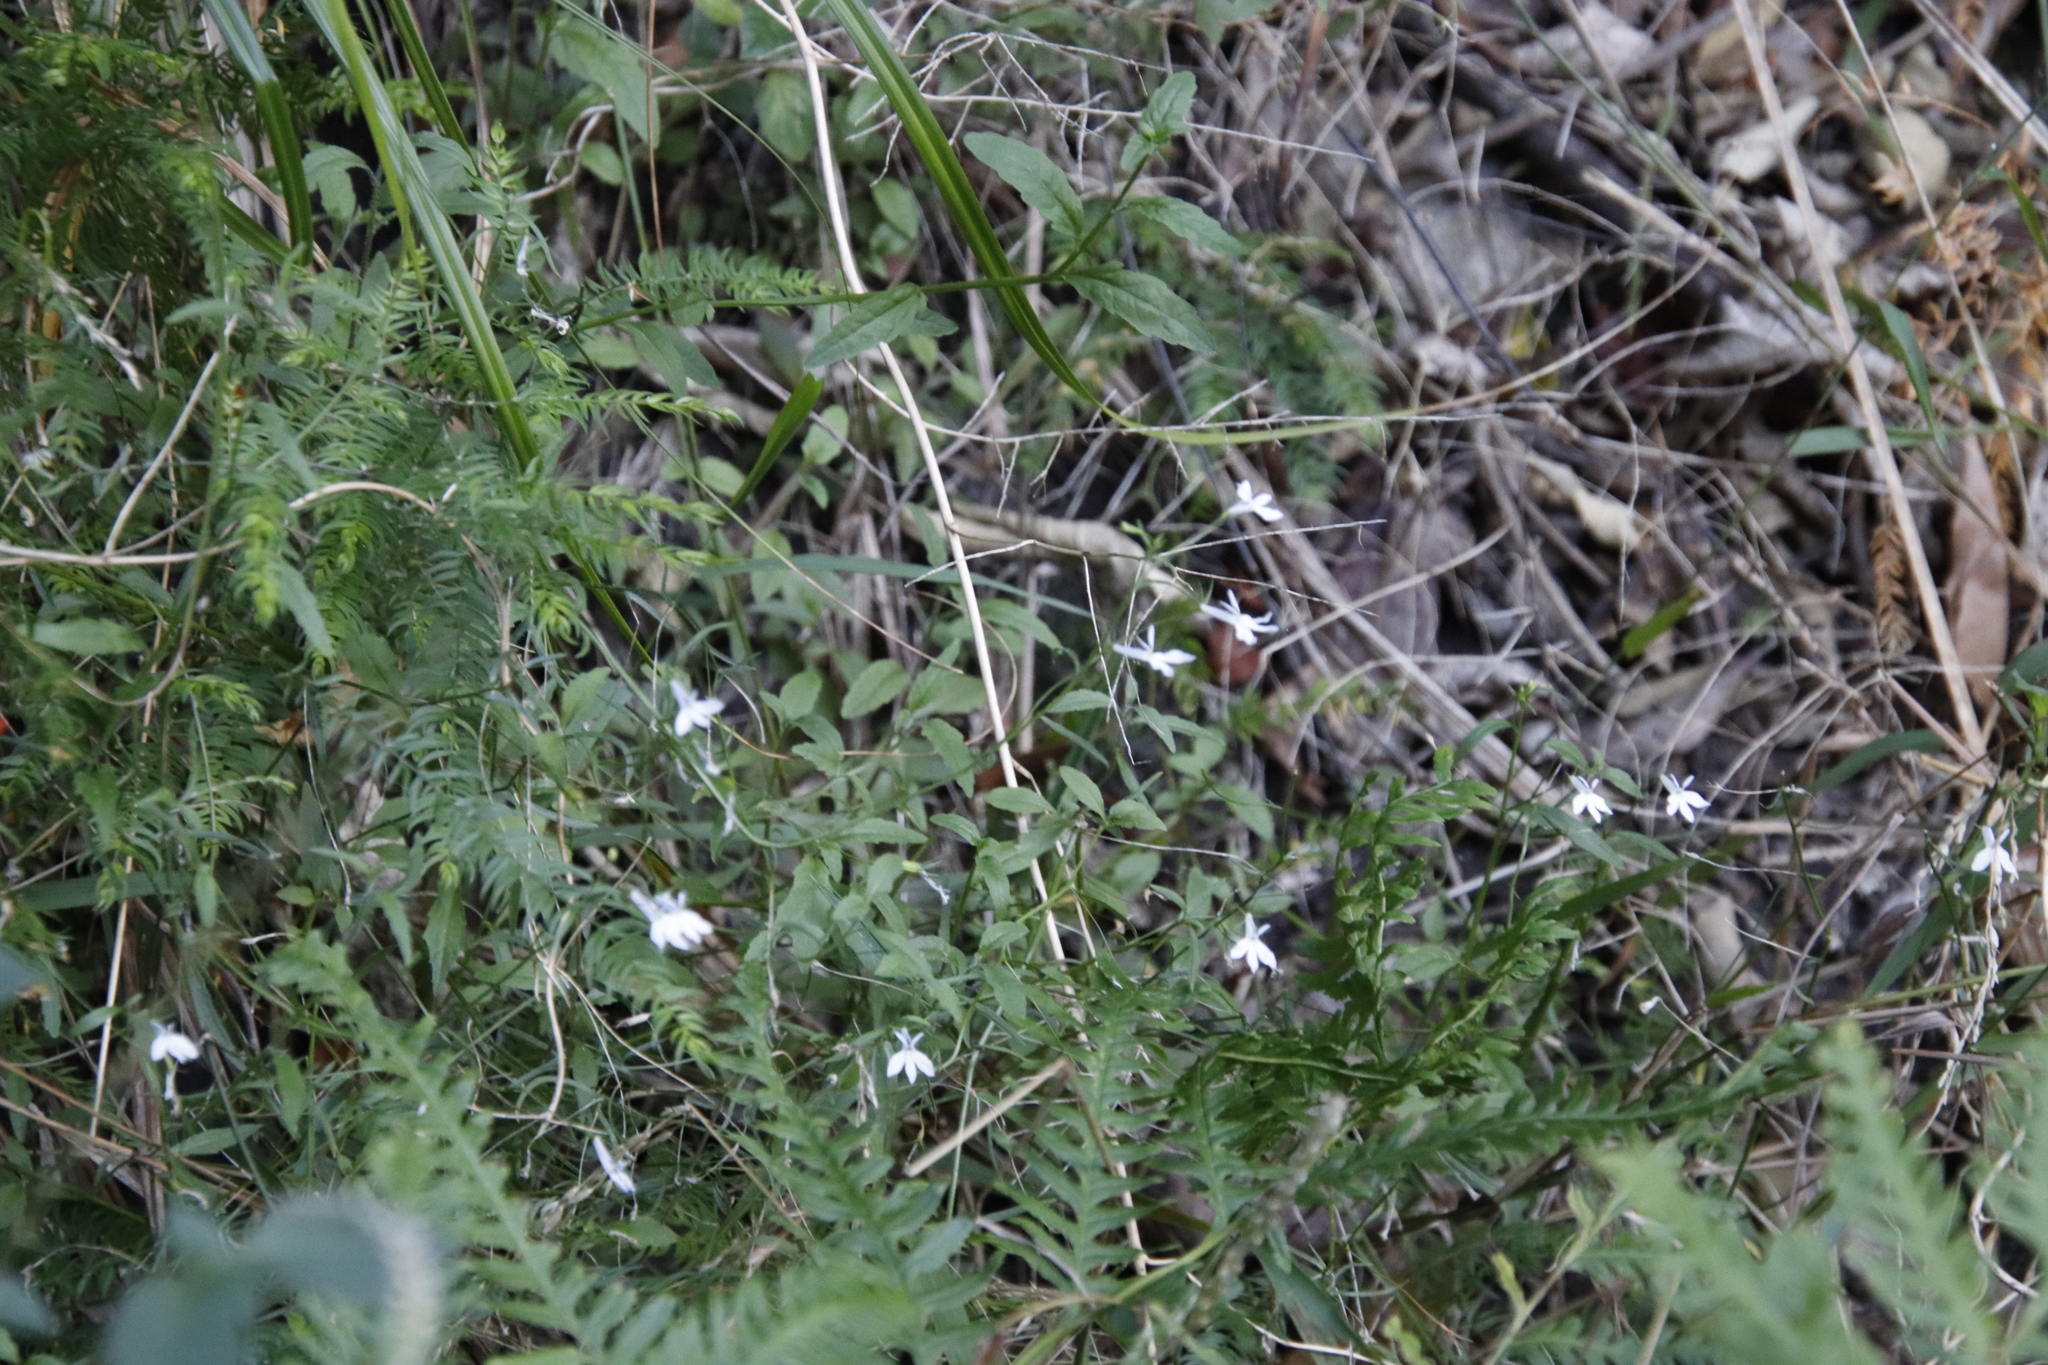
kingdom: Plantae
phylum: Tracheophyta
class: Magnoliopsida
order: Asterales
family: Campanulaceae
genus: Lobelia
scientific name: Lobelia pubescens
